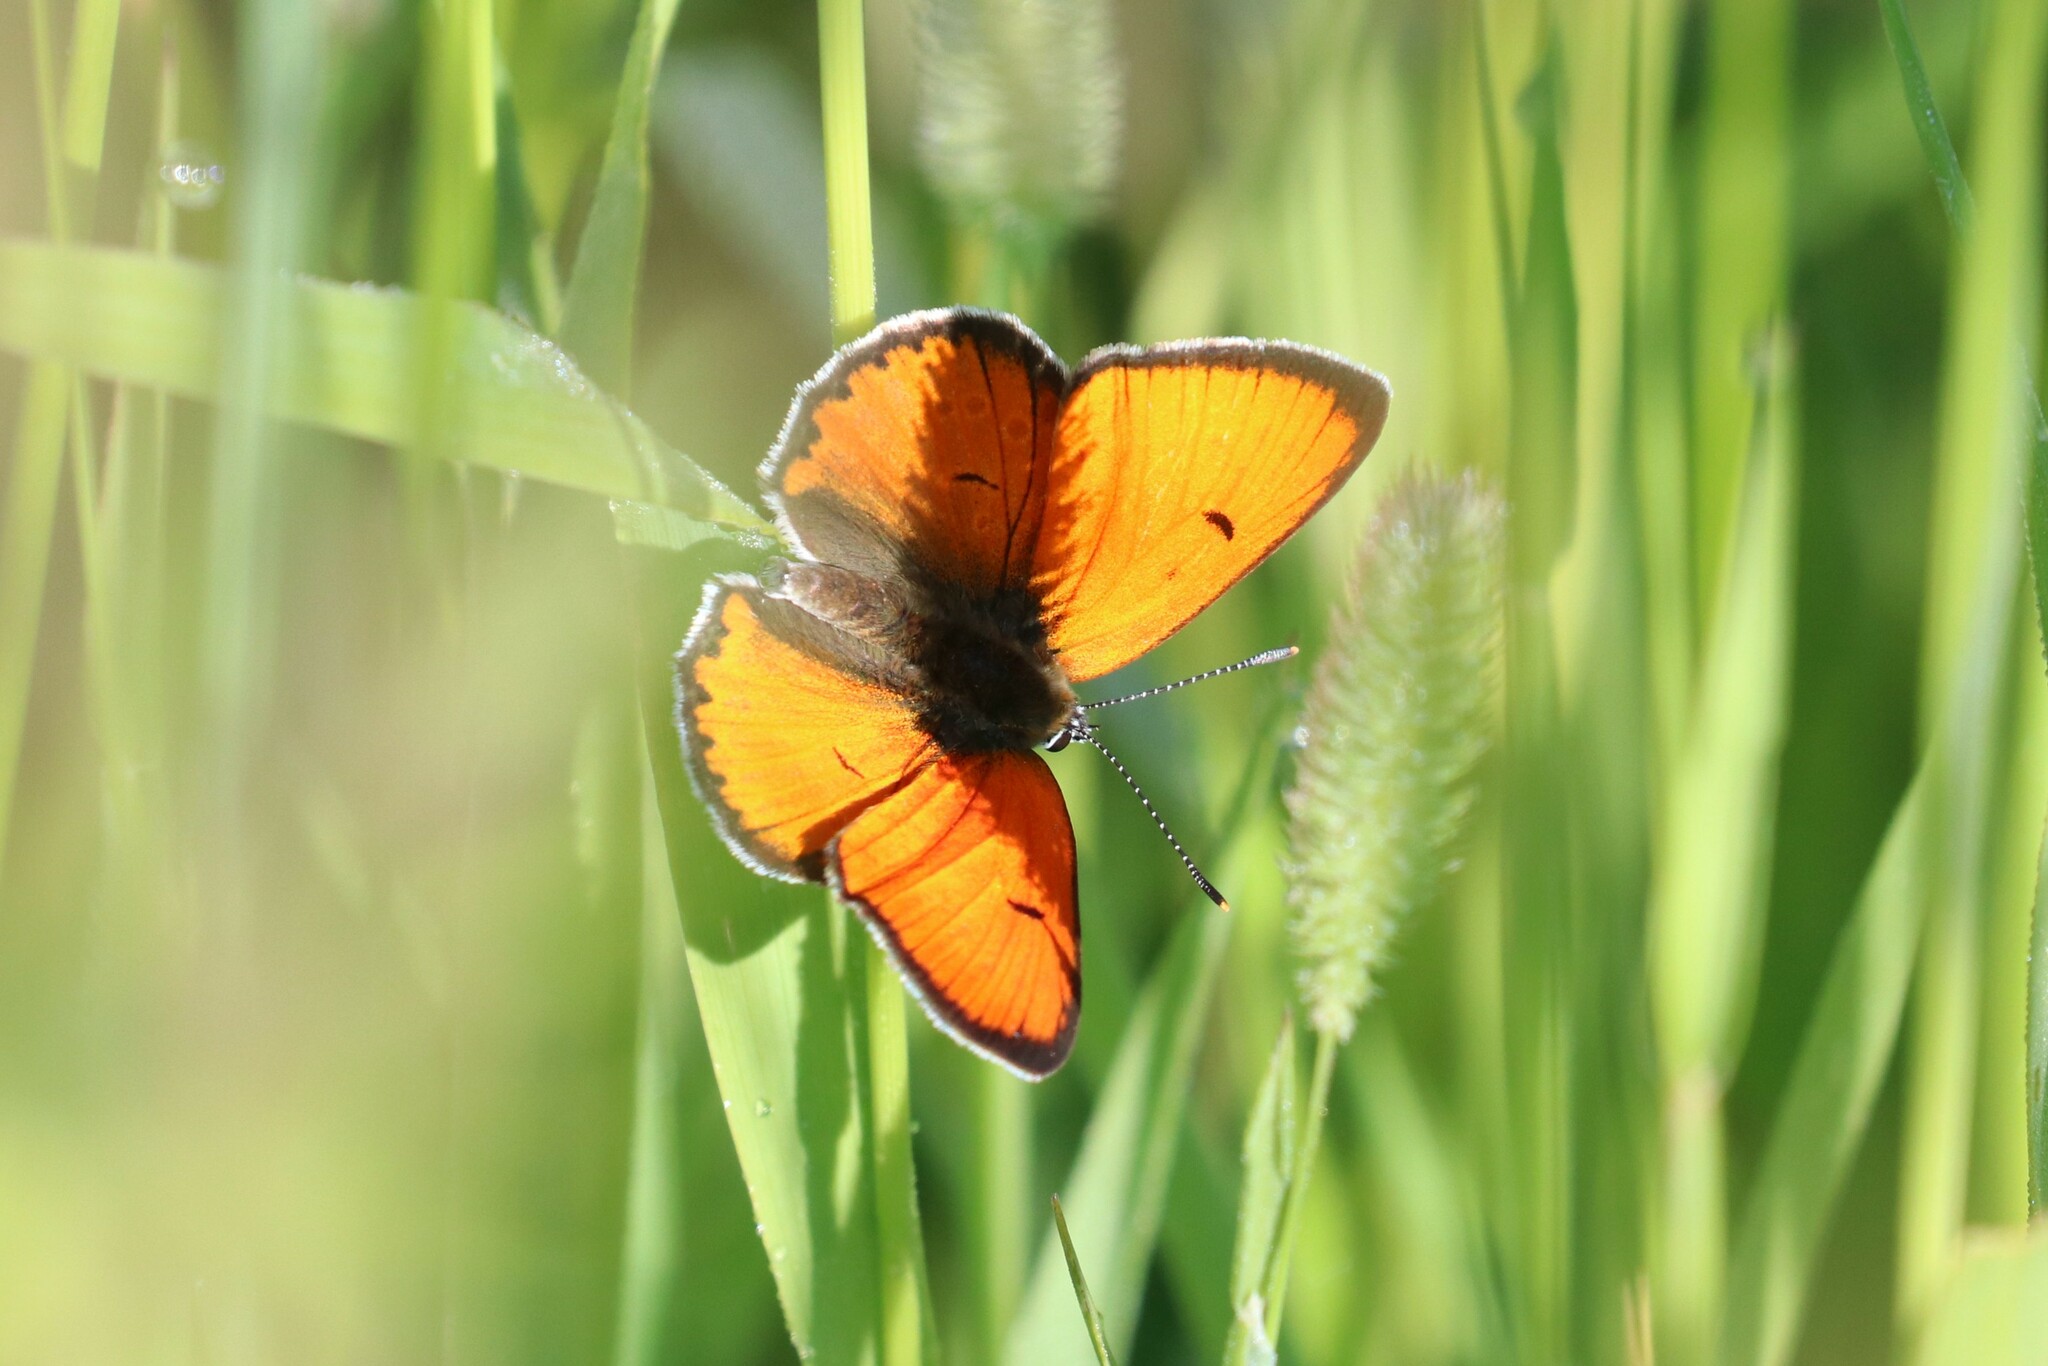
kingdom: Animalia
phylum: Arthropoda
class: Insecta
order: Lepidoptera
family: Lycaenidae
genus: Lycaena
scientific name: Lycaena dispar
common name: Large copper
